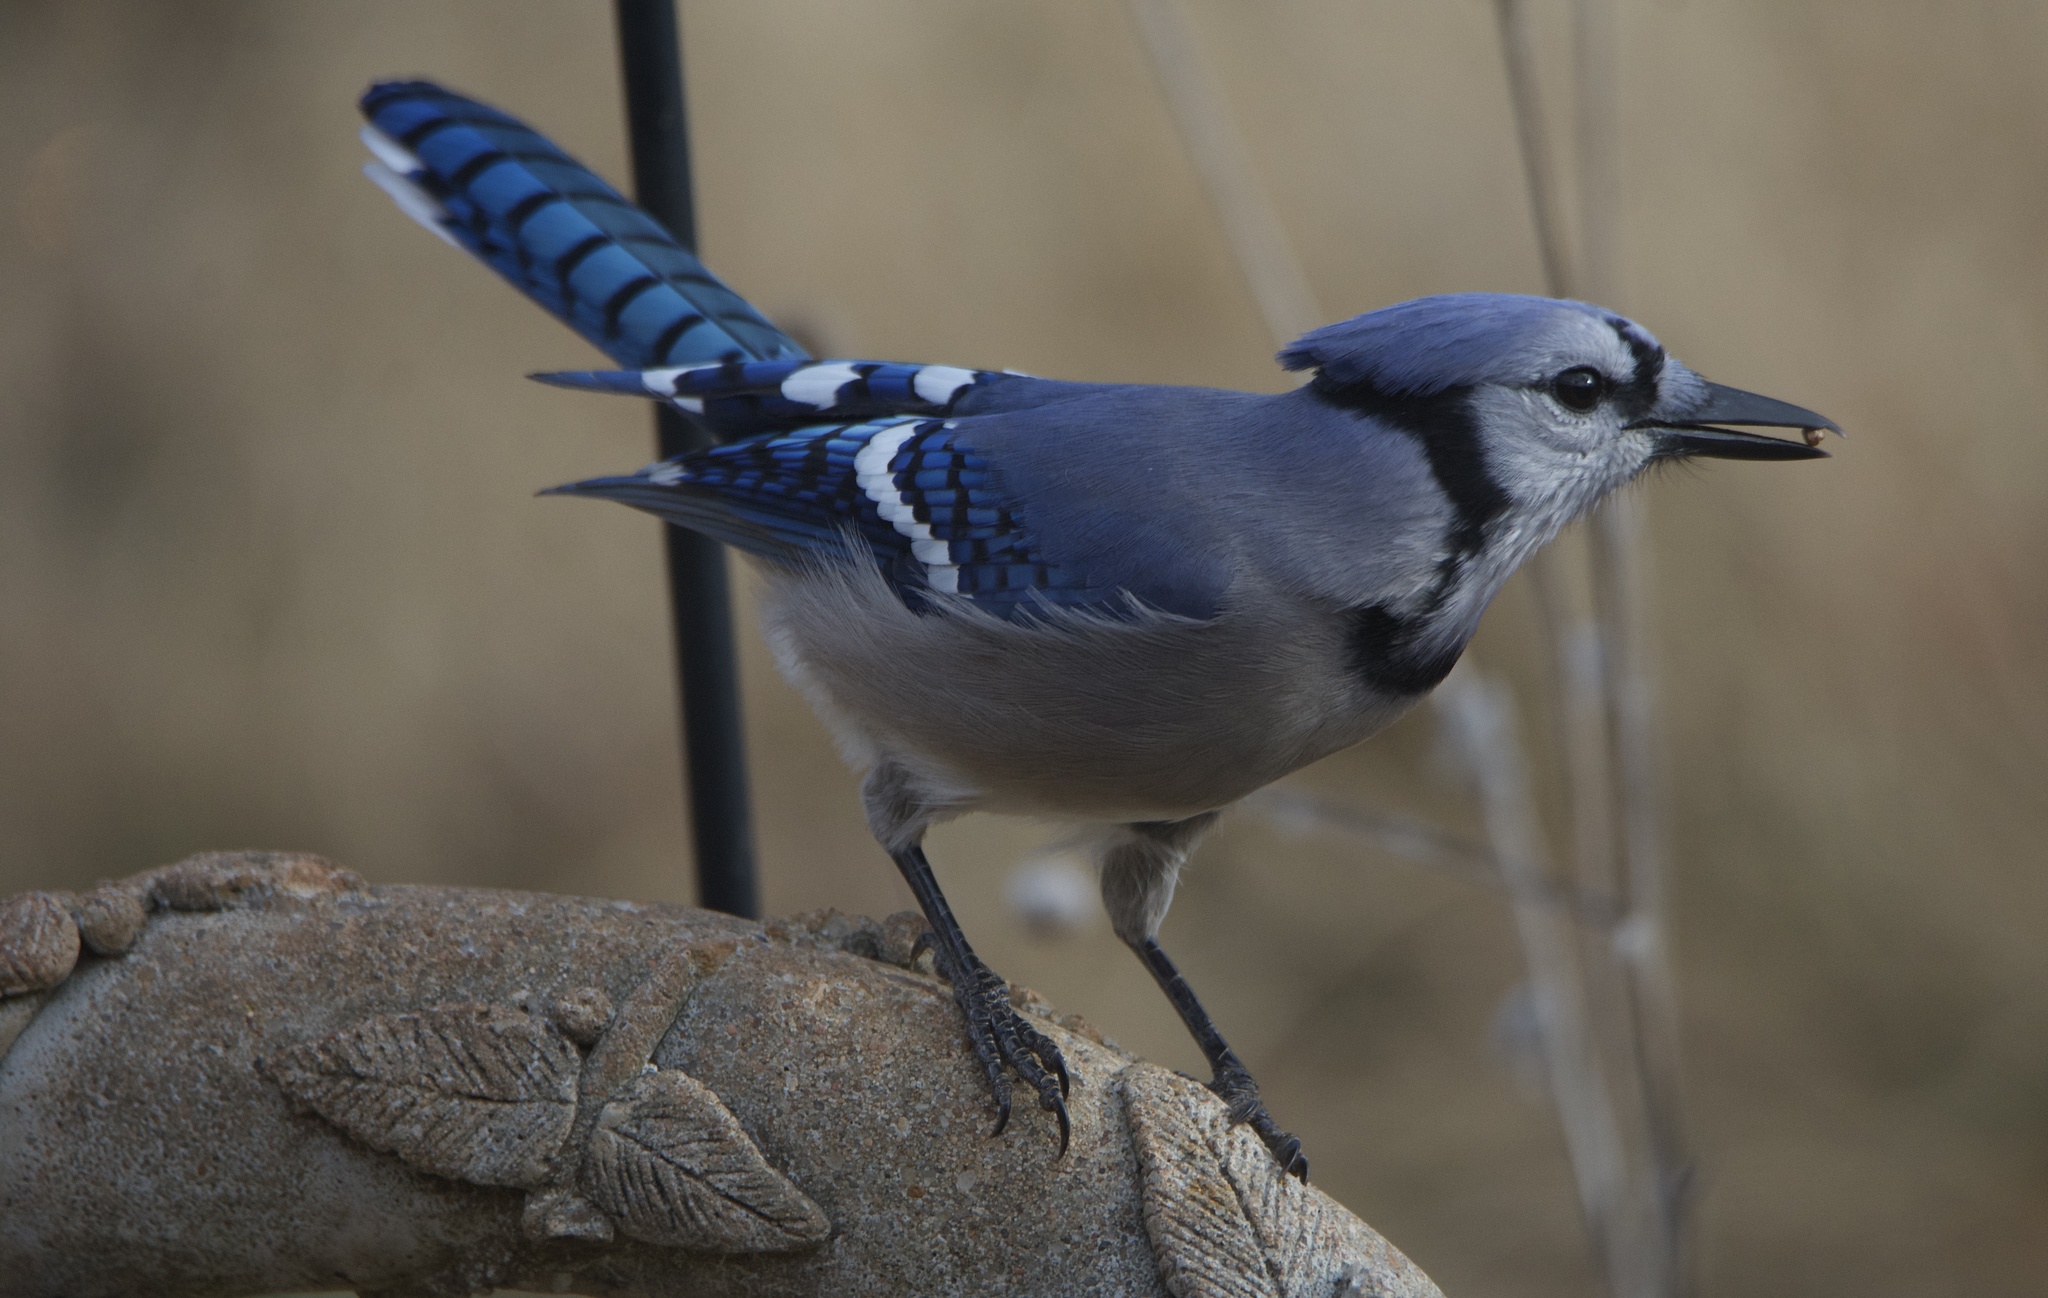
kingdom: Animalia
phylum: Chordata
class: Aves
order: Passeriformes
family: Corvidae
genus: Cyanocitta
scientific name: Cyanocitta cristata
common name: Blue jay
